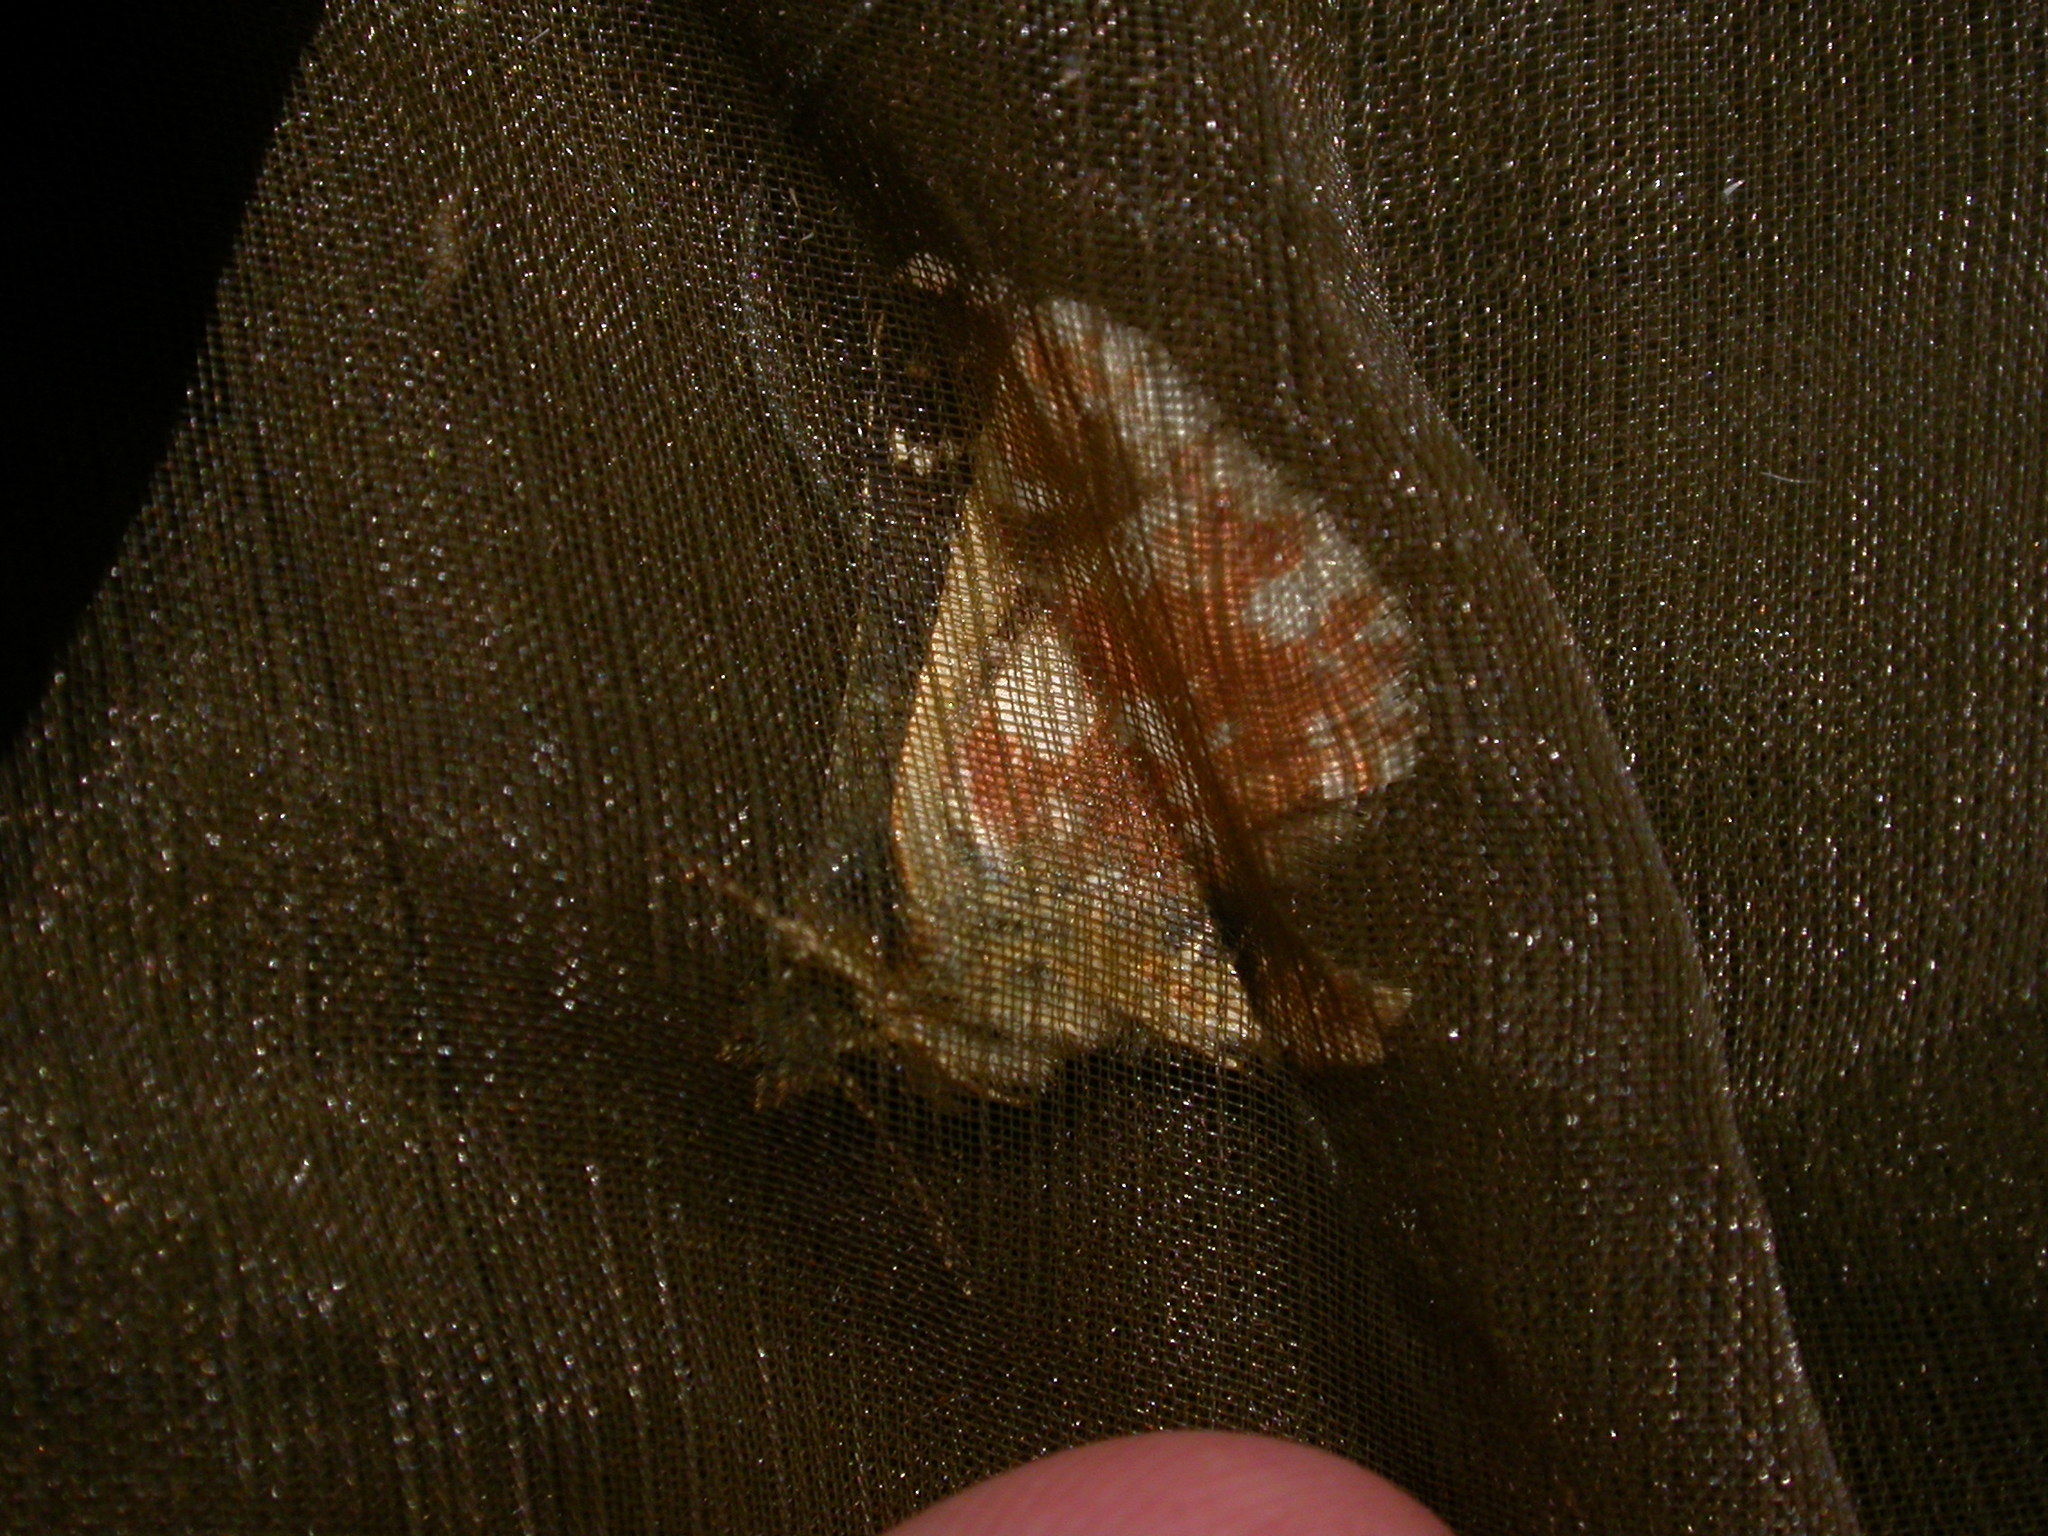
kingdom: Animalia
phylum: Arthropoda
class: Insecta
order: Lepidoptera
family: Hesperiidae
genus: Spialia
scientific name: Spialia sertorius
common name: Red underwing skipper
